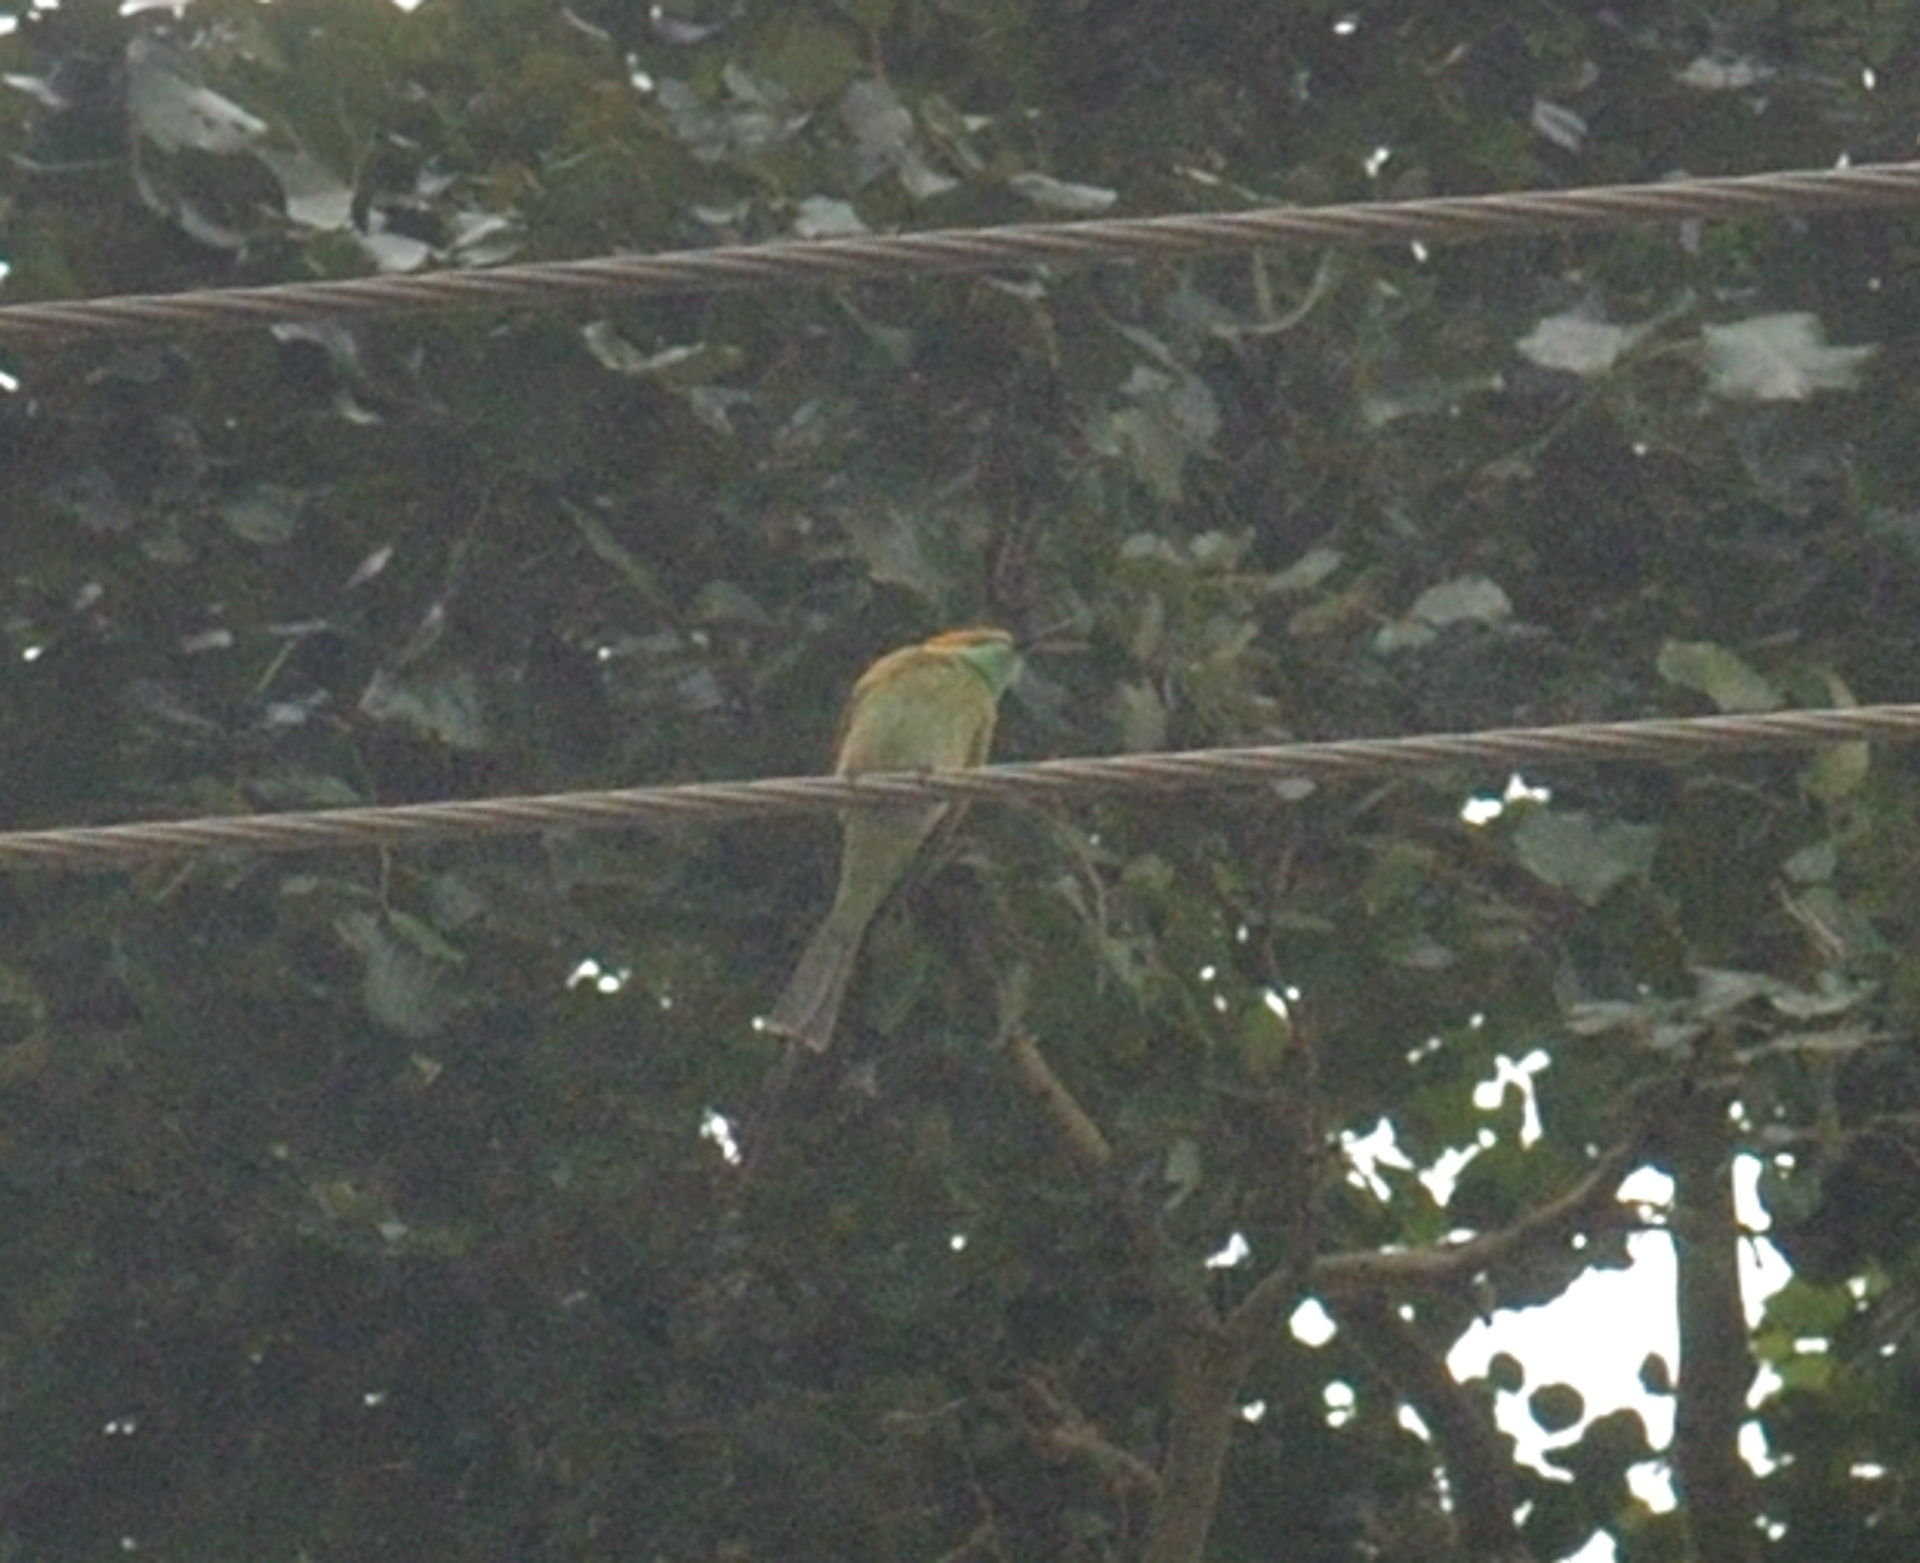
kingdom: Animalia
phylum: Chordata
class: Aves
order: Coraciiformes
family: Meropidae
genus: Merops
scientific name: Merops orientalis
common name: Green bee-eater
